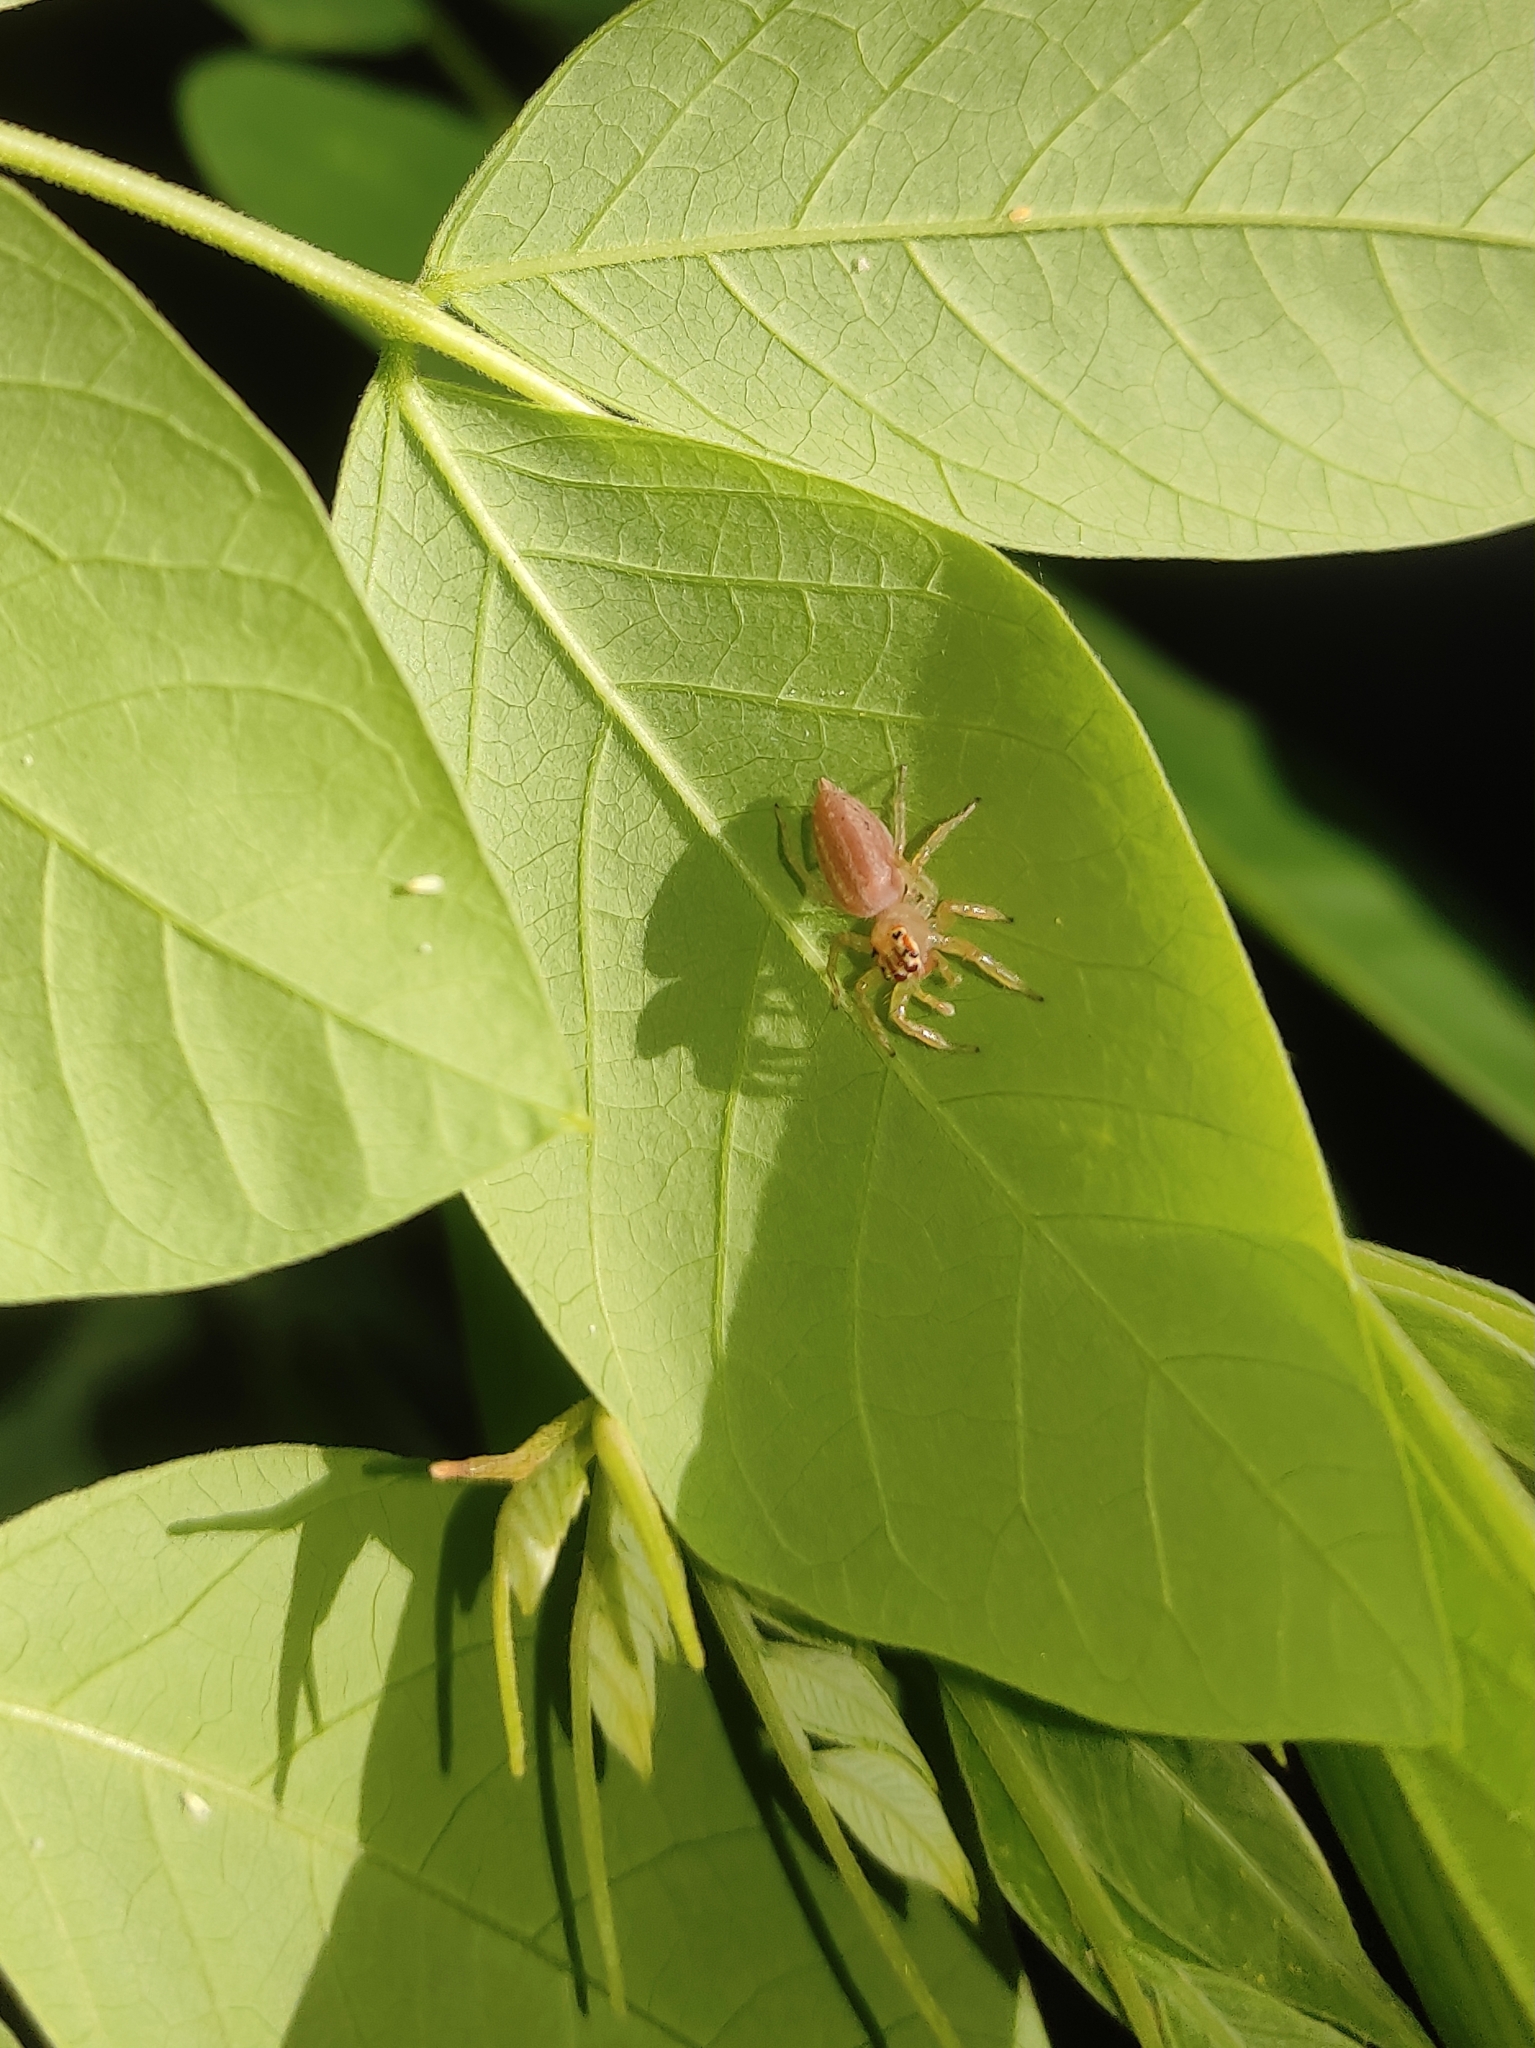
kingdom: Animalia
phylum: Arthropoda
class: Arachnida
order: Araneae
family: Salticidae
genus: Chira
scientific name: Chira simoni
